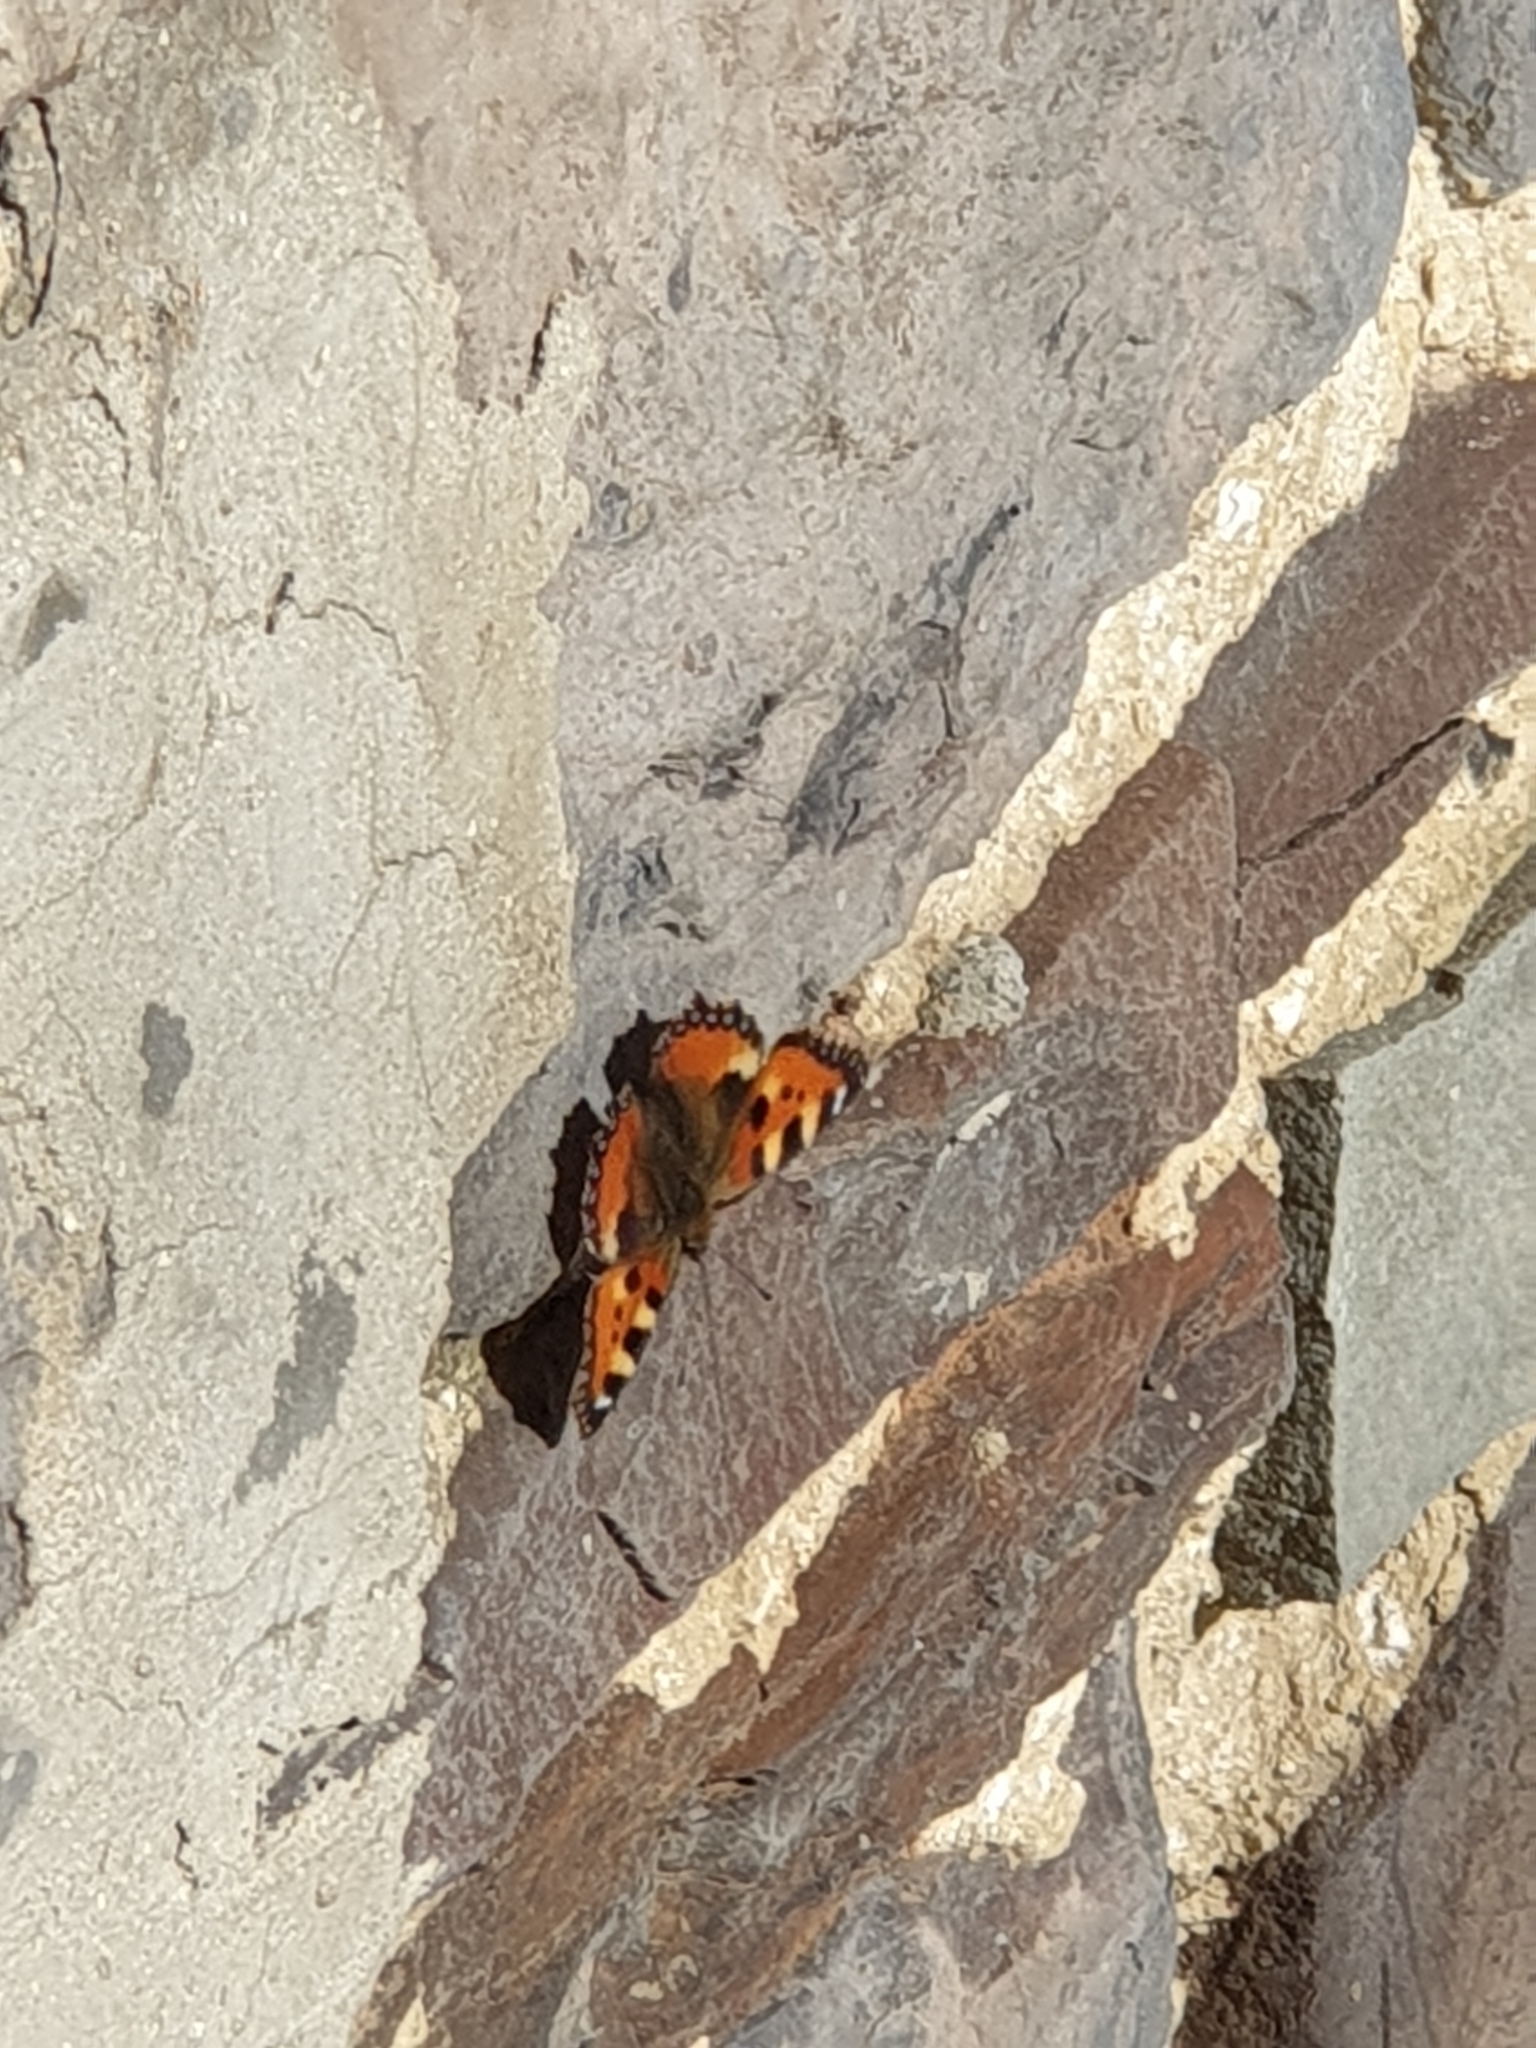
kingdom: Animalia
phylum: Arthropoda
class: Insecta
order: Lepidoptera
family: Nymphalidae
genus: Aglais
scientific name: Aglais urticae
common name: Small tortoiseshell
